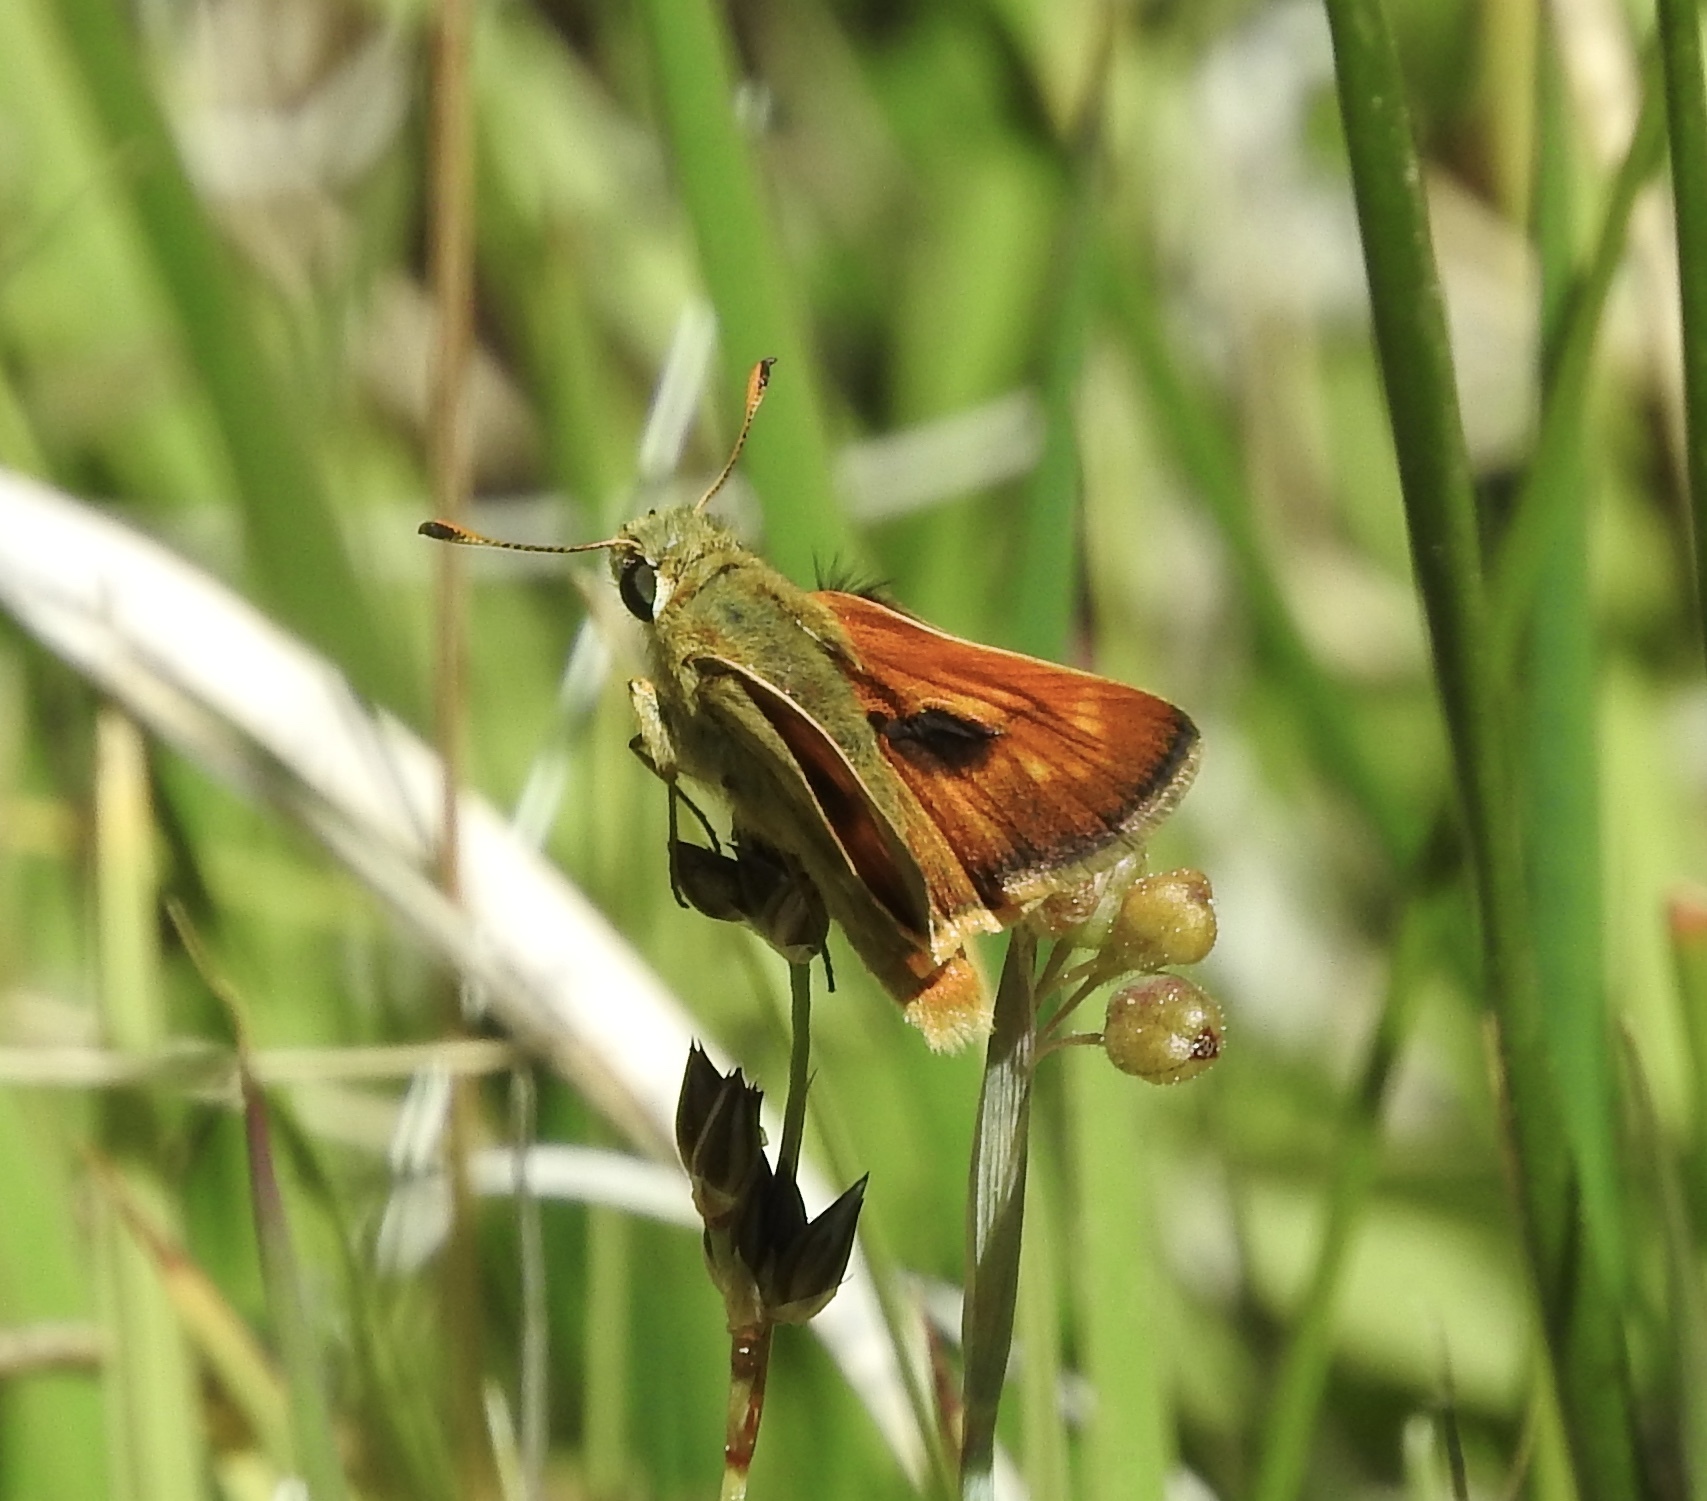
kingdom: Animalia
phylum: Arthropoda
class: Insecta
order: Lepidoptera
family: Hesperiidae
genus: Polites
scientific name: Polites mystic
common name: Long dash
